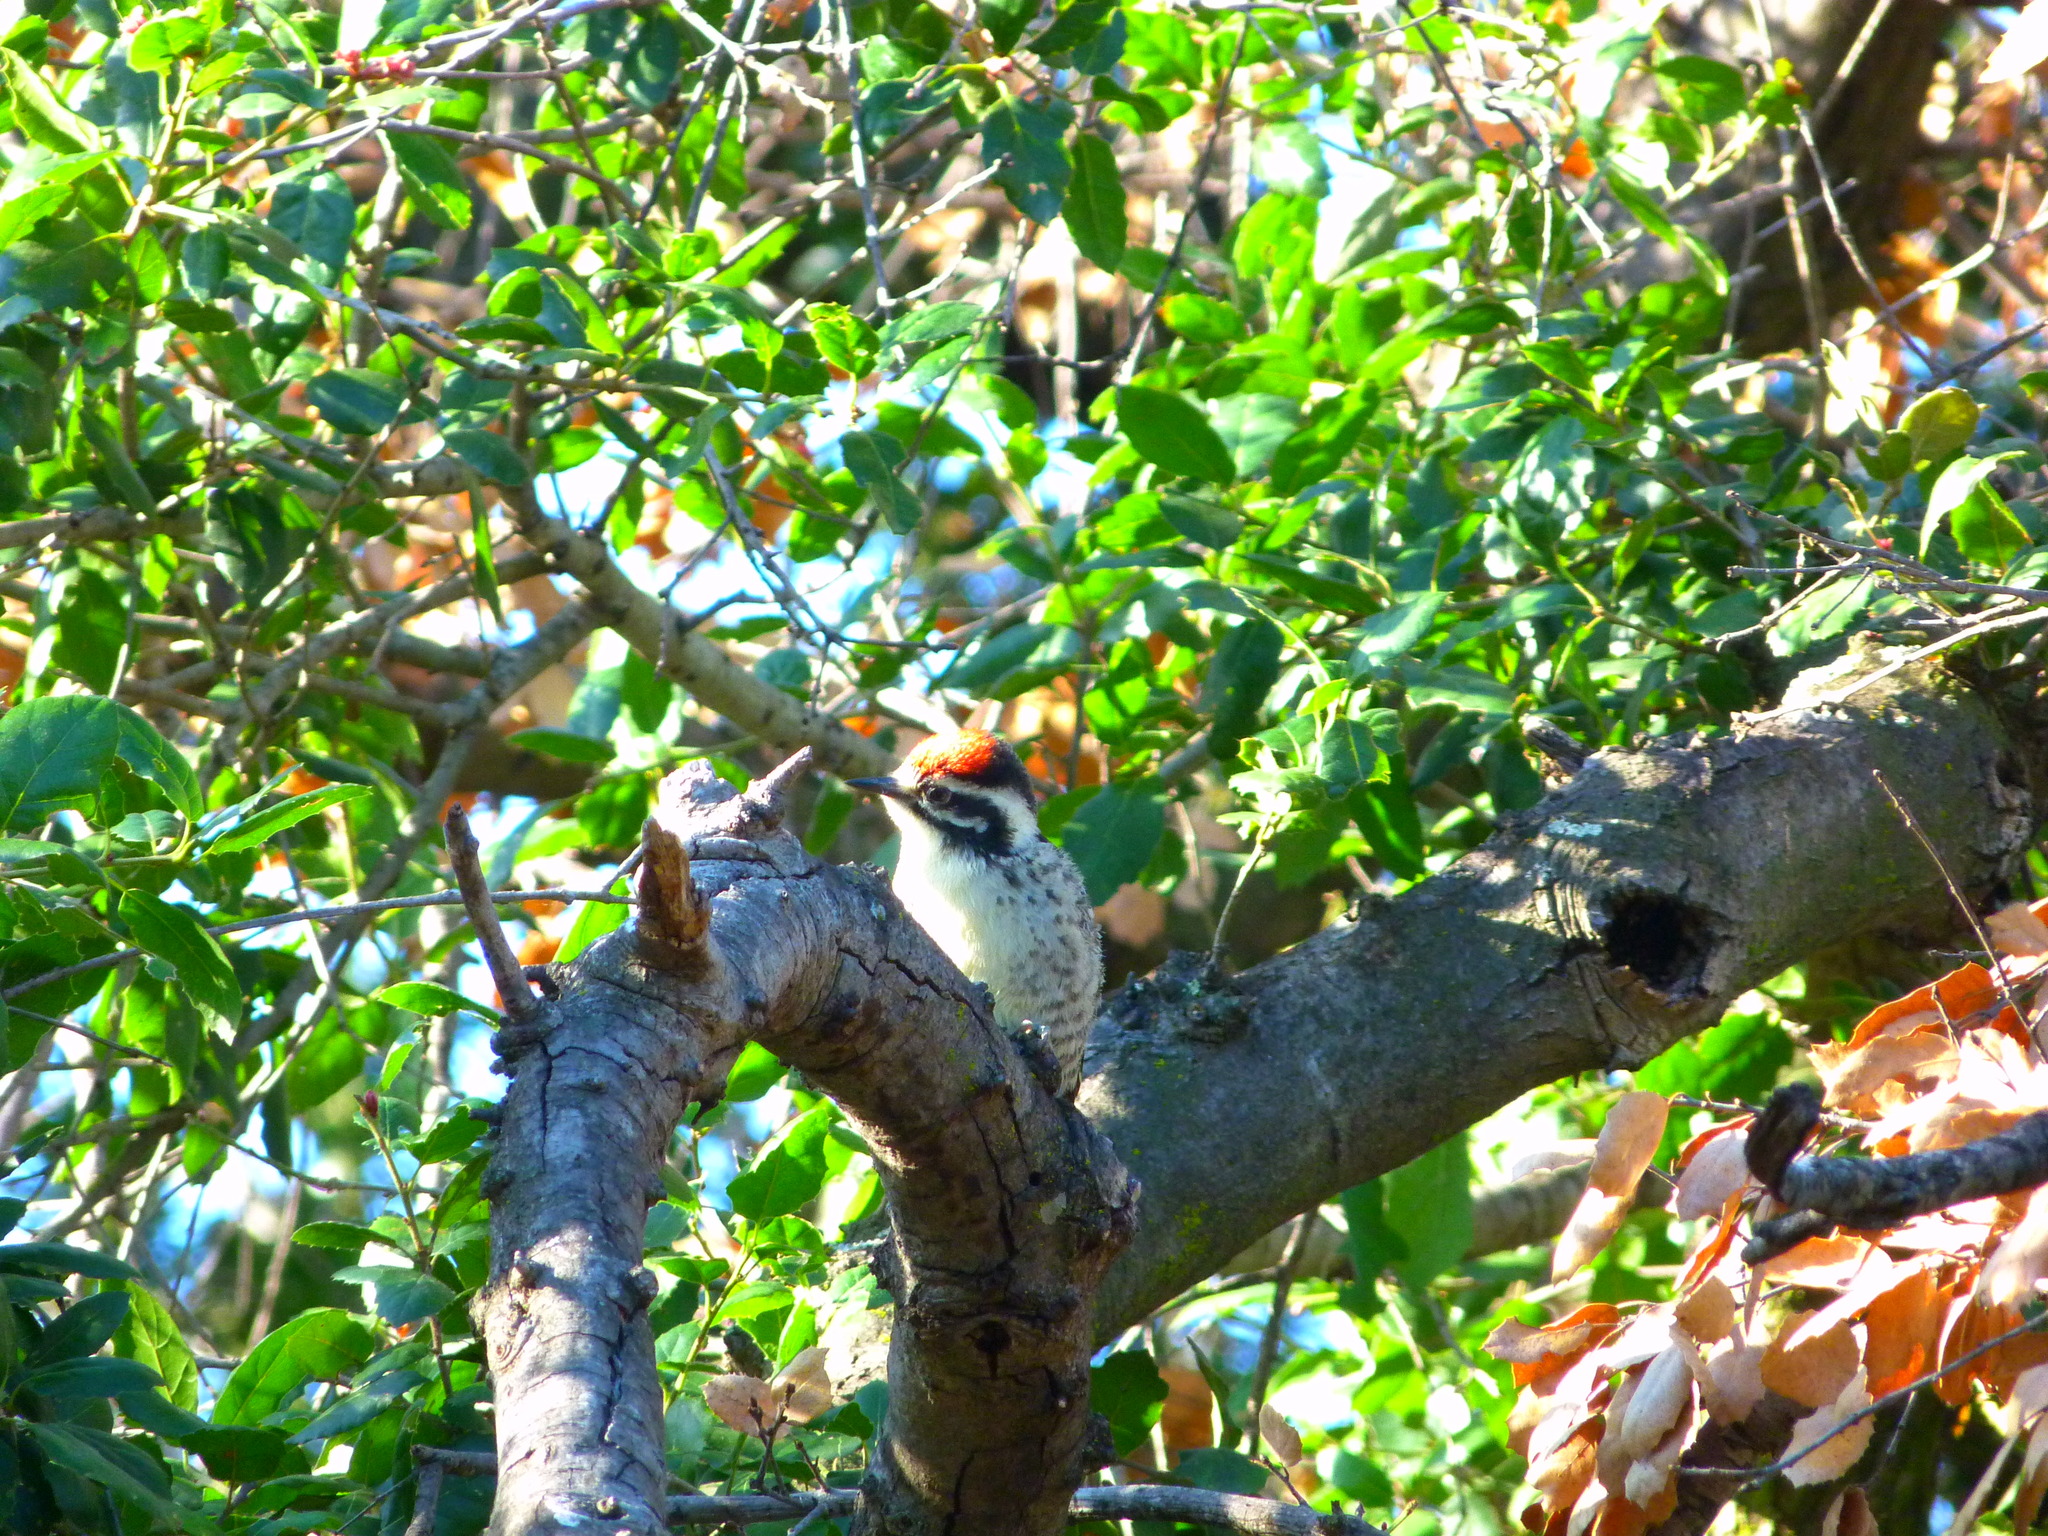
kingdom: Animalia
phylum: Chordata
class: Aves
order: Piciformes
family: Picidae
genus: Dryobates
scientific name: Dryobates nuttallii
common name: Nuttall's woodpecker
